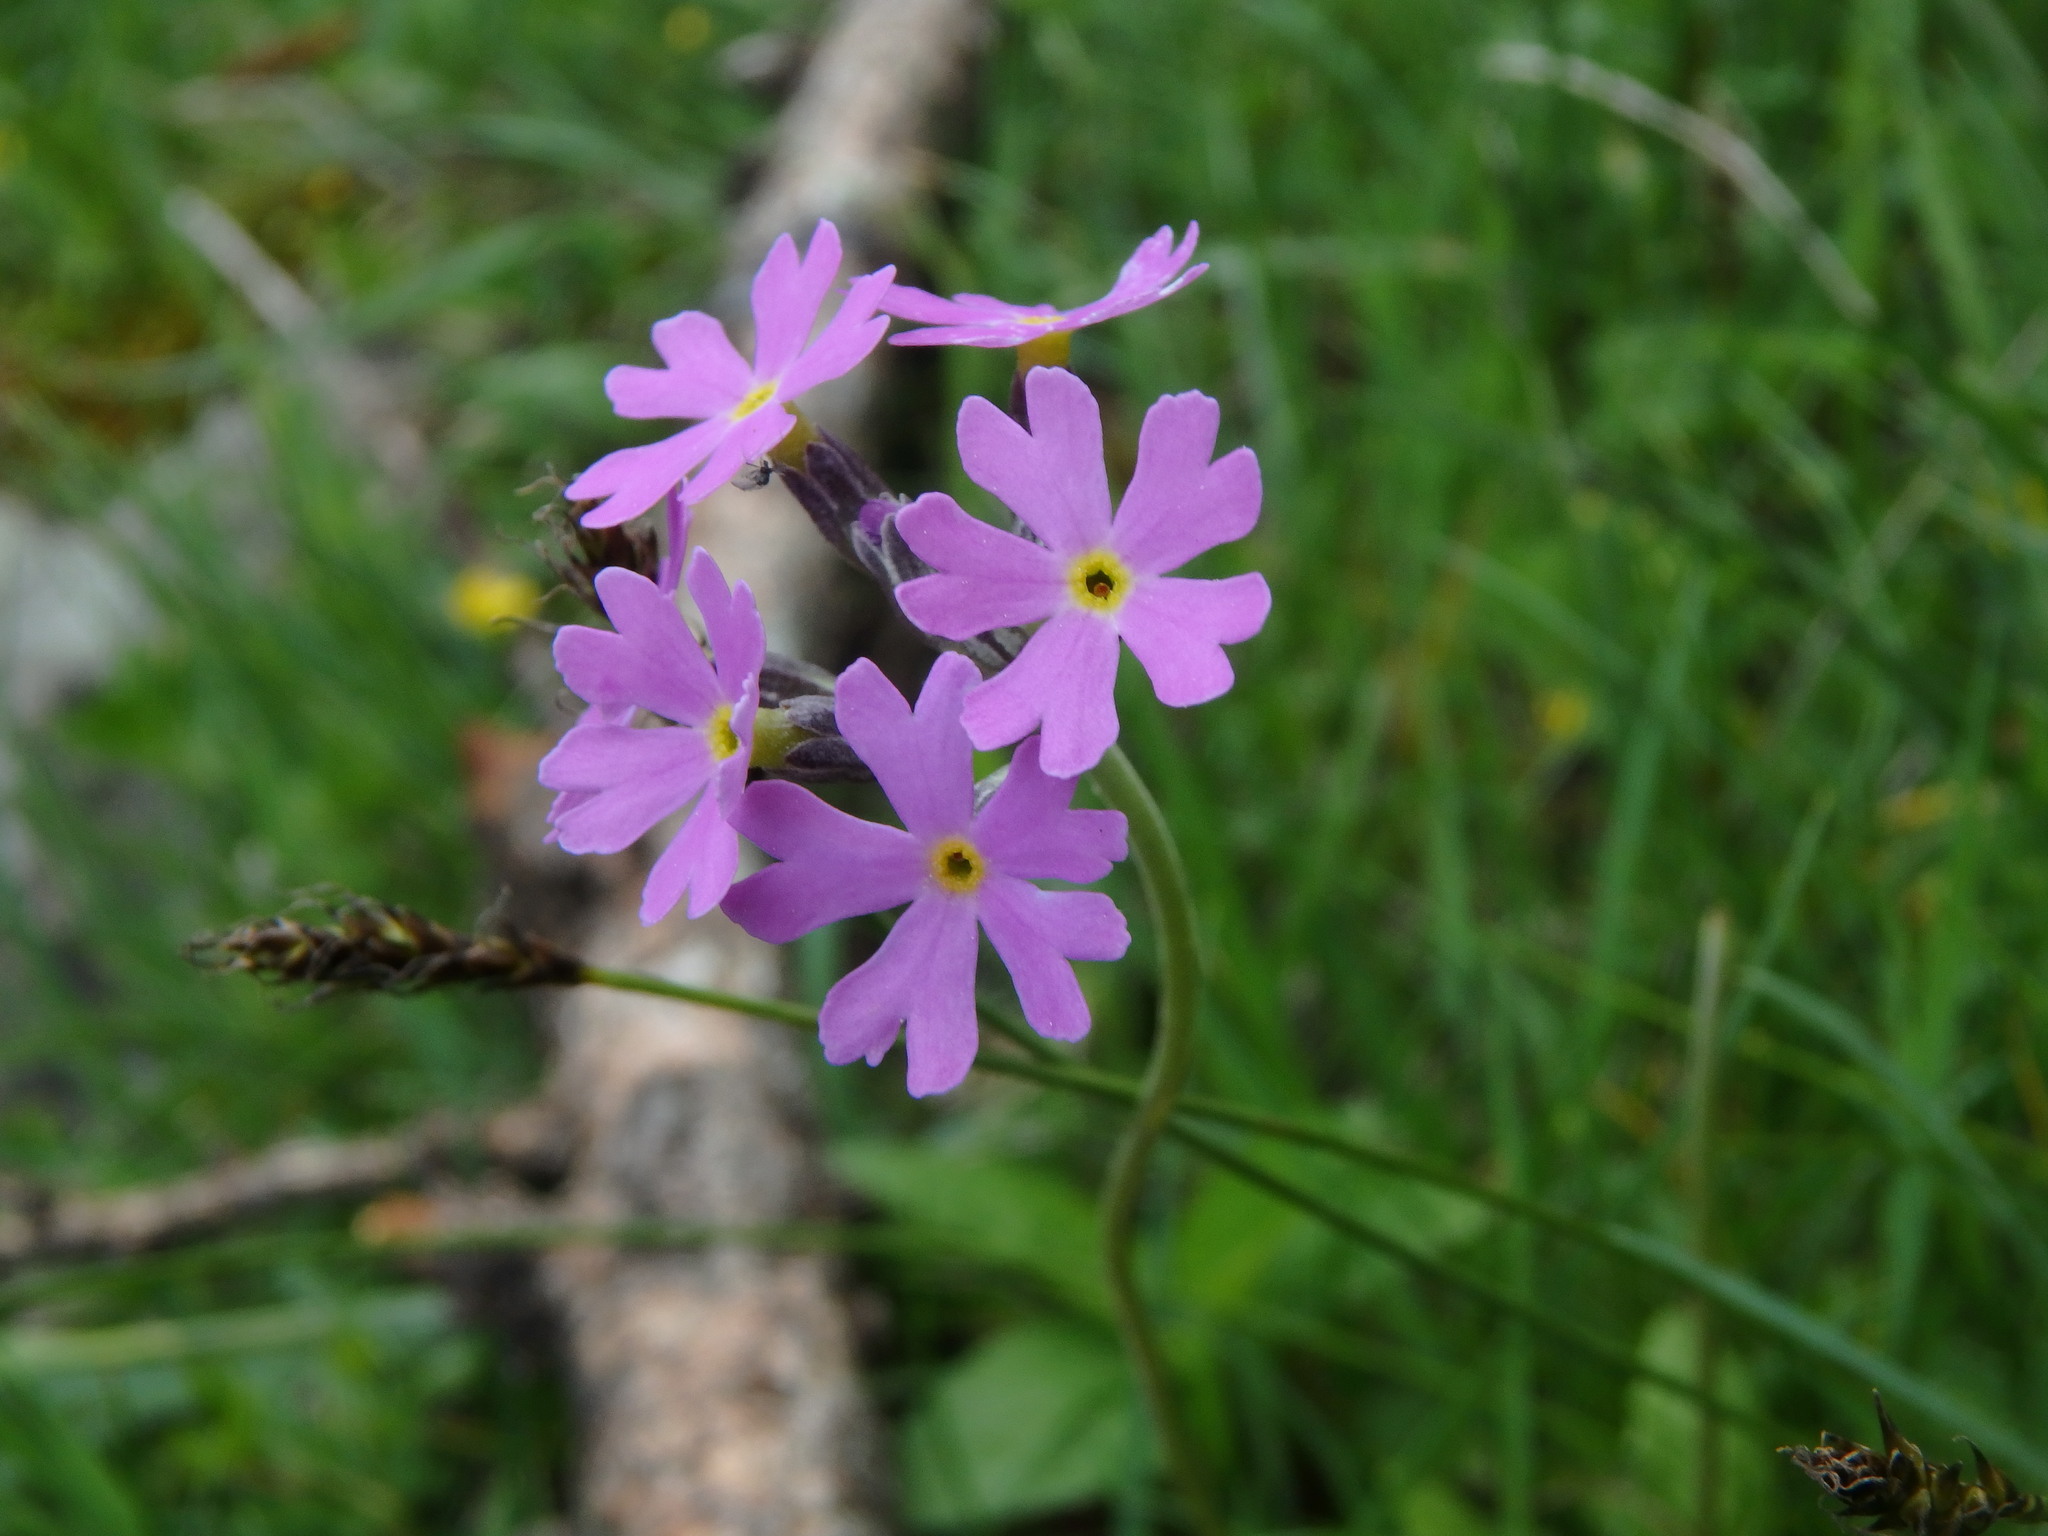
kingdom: Plantae
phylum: Tracheophyta
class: Magnoliopsida
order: Ericales
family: Primulaceae
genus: Primula
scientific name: Primula farinosa
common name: Bird's-eye primrose
